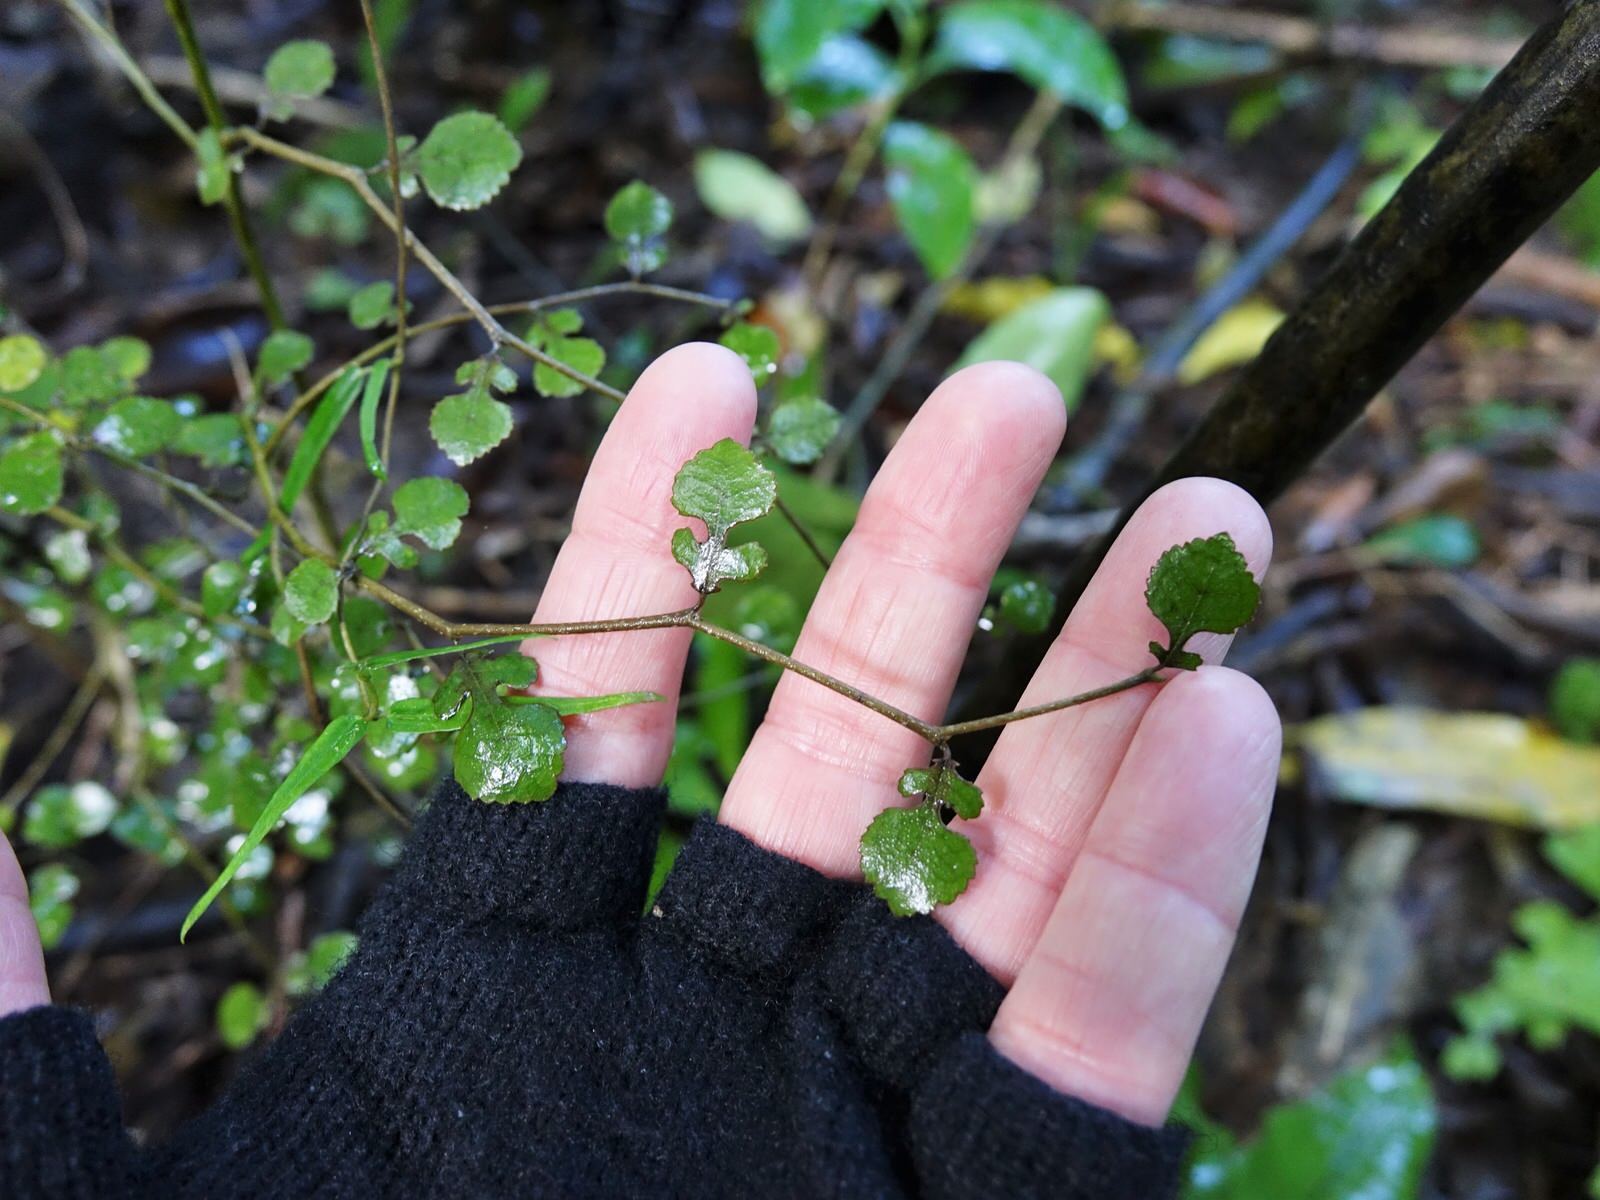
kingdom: Plantae
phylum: Tracheophyta
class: Magnoliopsida
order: Rosales
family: Moraceae
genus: Paratrophis
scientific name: Paratrophis microphylla
